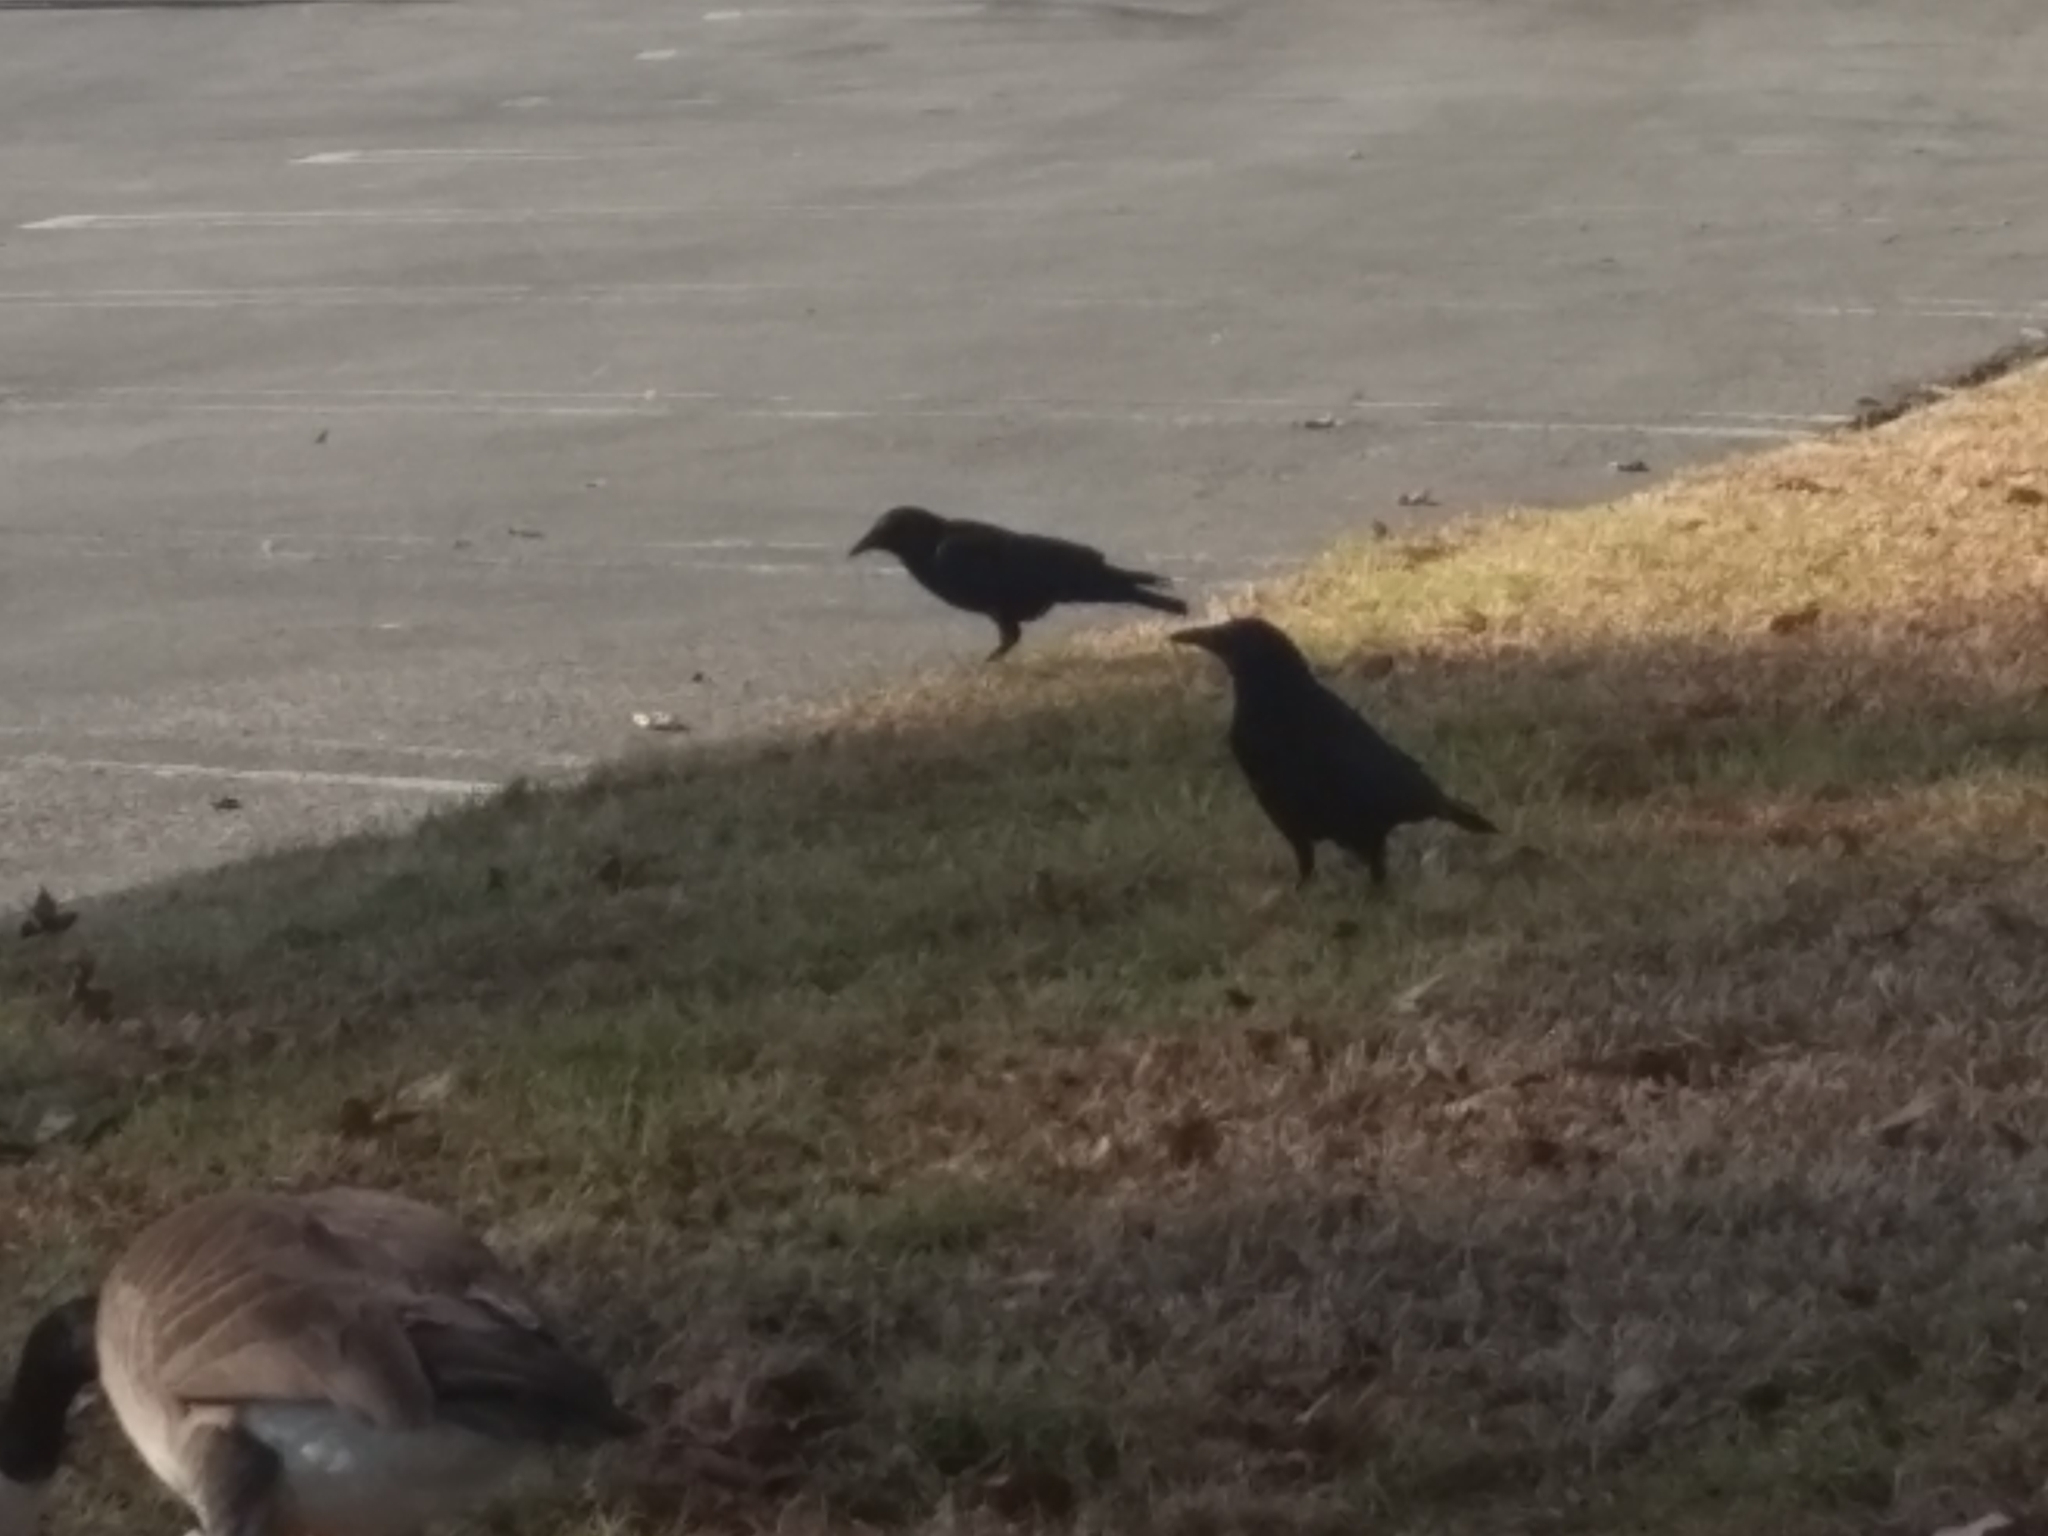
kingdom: Animalia
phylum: Chordata
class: Aves
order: Passeriformes
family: Corvidae
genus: Corvus
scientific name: Corvus brachyrhynchos
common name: American crow
